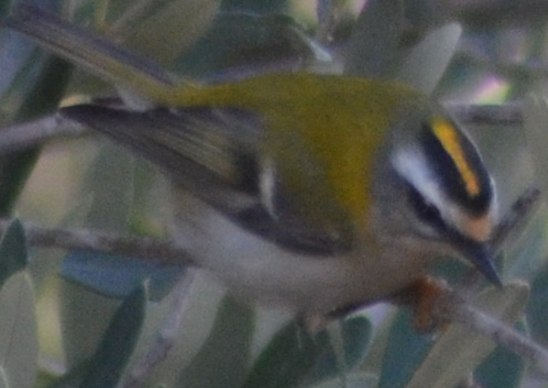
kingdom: Animalia
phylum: Chordata
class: Aves
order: Passeriformes
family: Regulidae
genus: Regulus
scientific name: Regulus ignicapilla
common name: Firecrest
